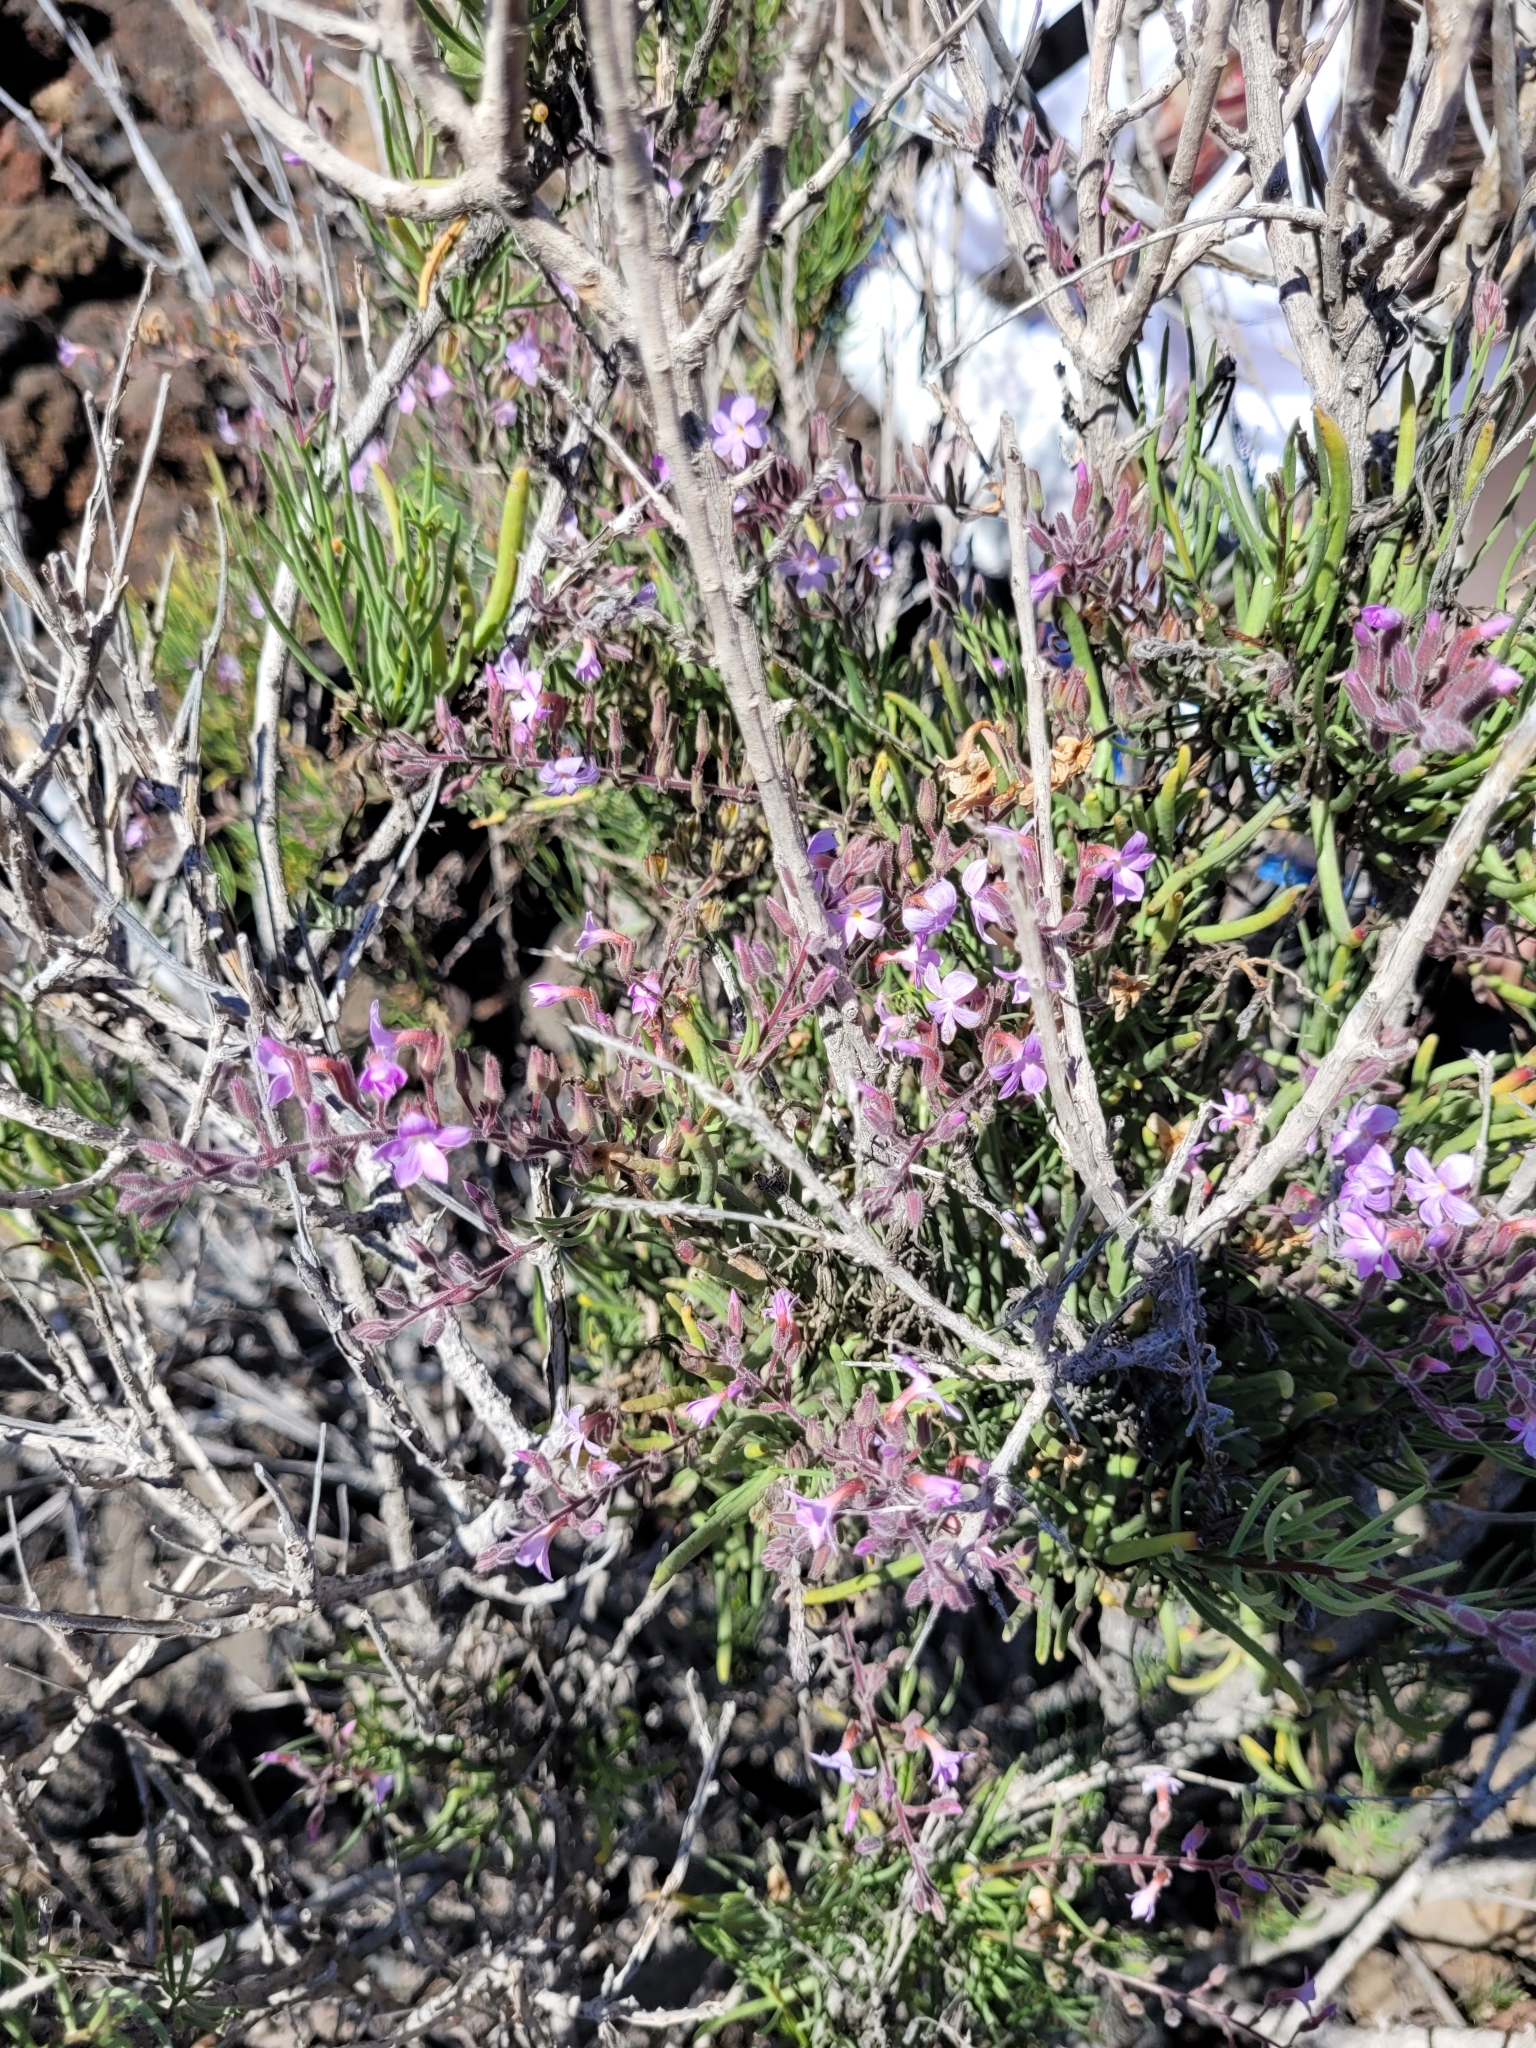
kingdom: Plantae
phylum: Tracheophyta
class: Magnoliopsida
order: Lamiales
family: Plantaginaceae
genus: Campylanthus
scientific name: Campylanthus salsoloides
